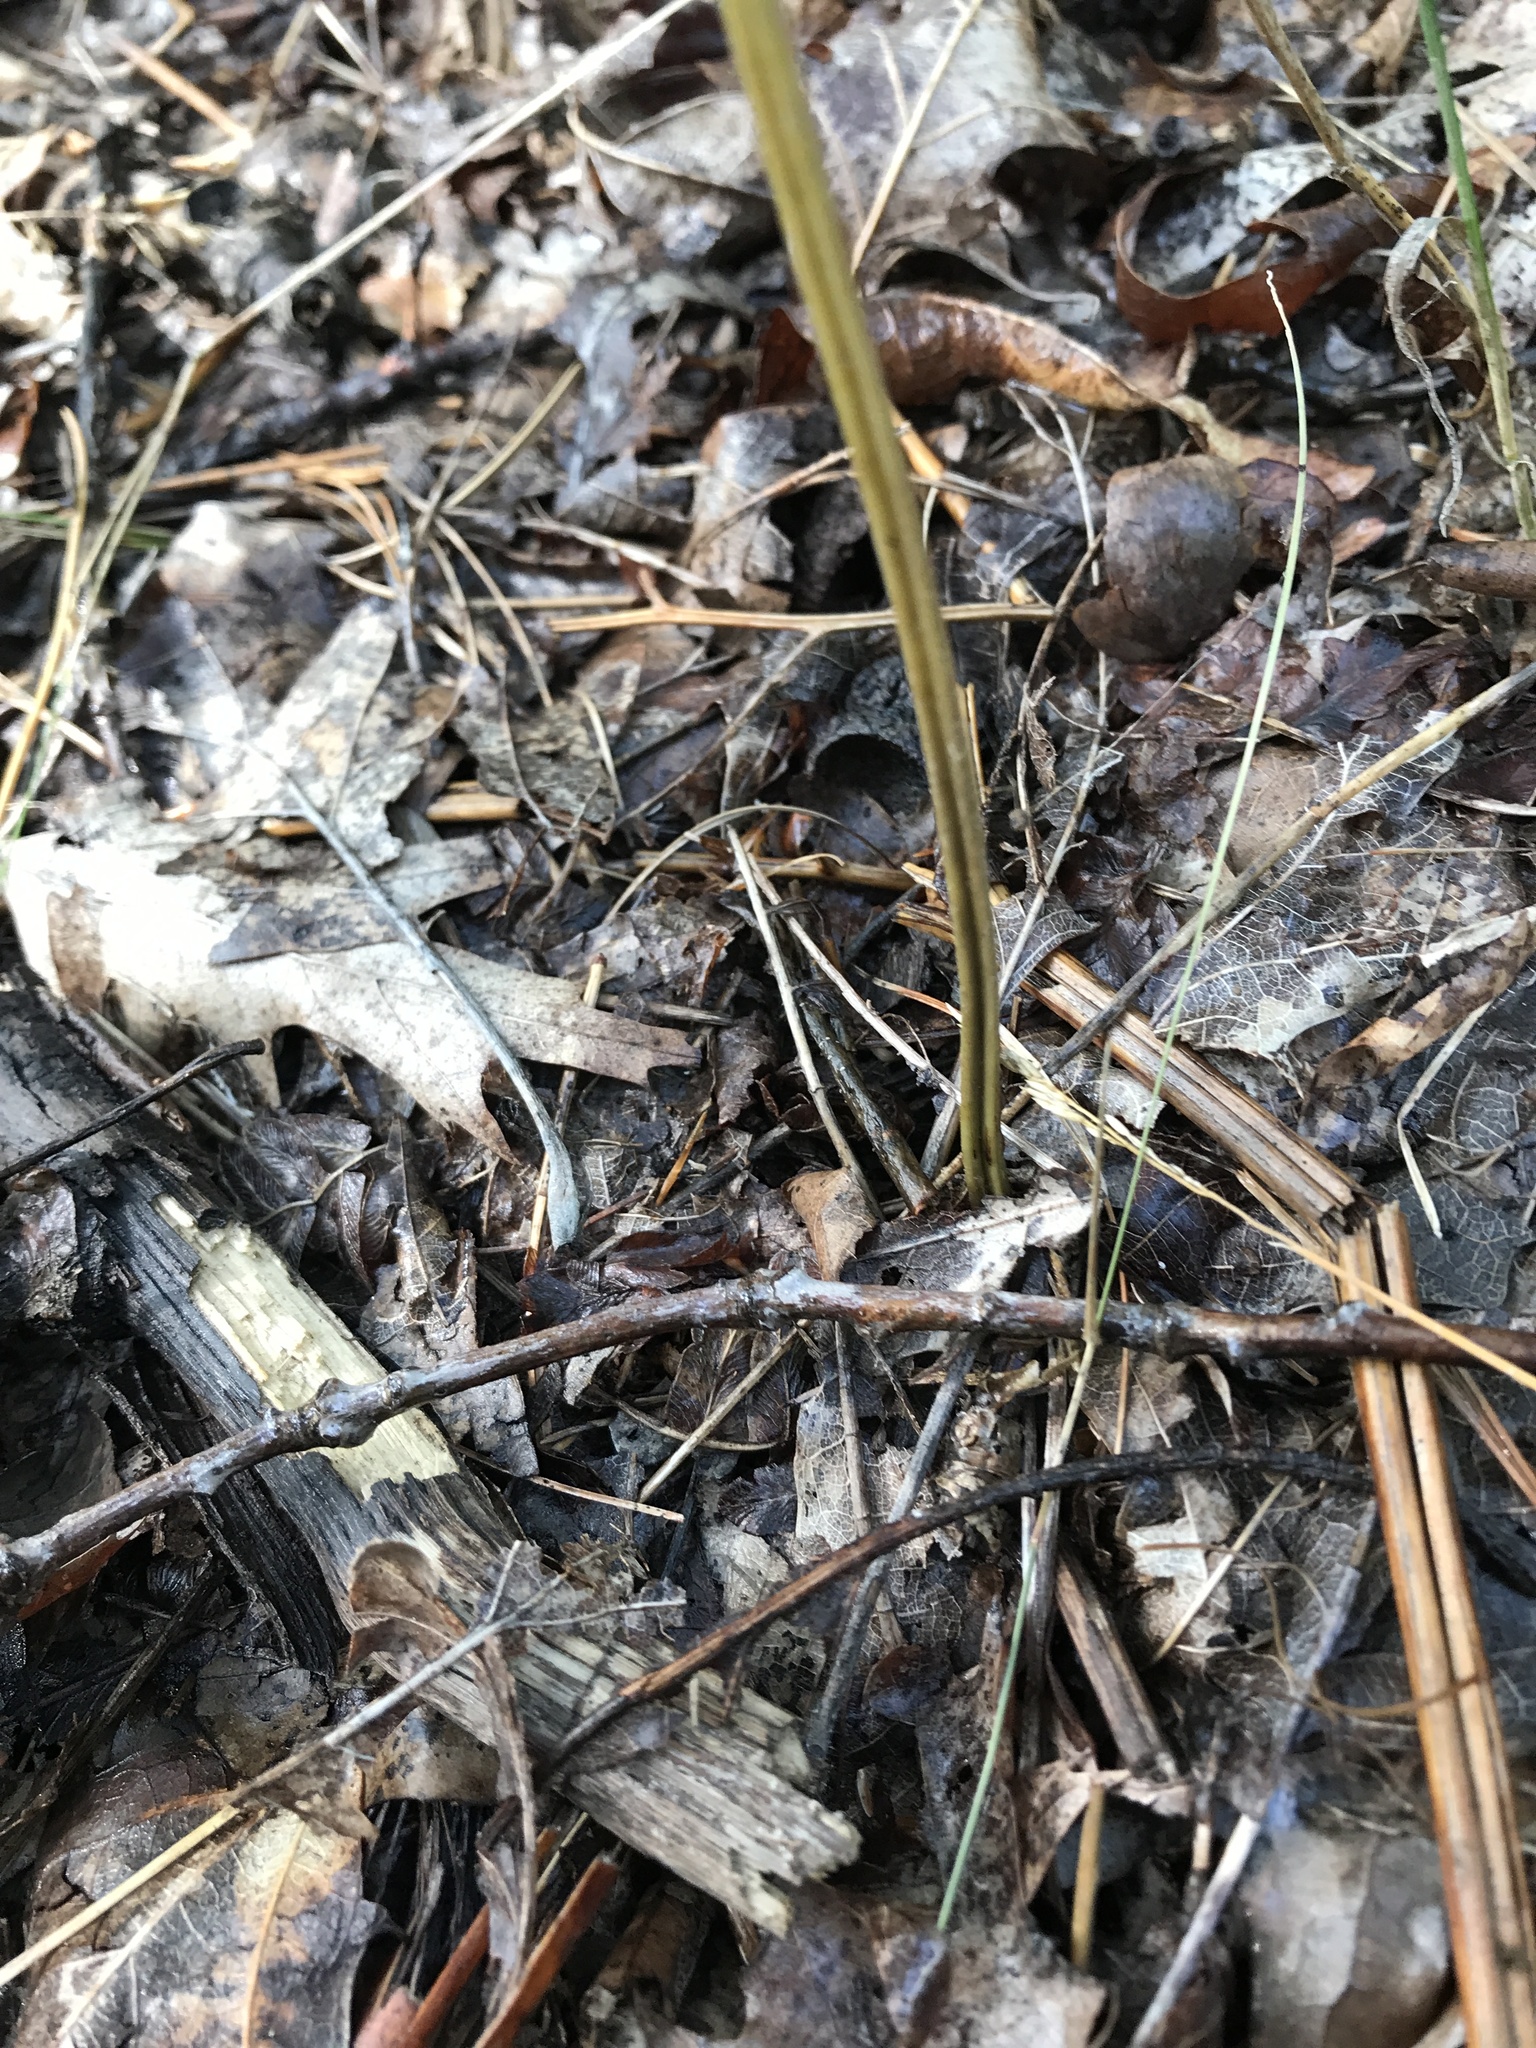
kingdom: Plantae
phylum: Tracheophyta
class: Polypodiopsida
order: Polypodiales
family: Dennstaedtiaceae
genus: Pteridium
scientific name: Pteridium aquilinum
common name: Bracken
